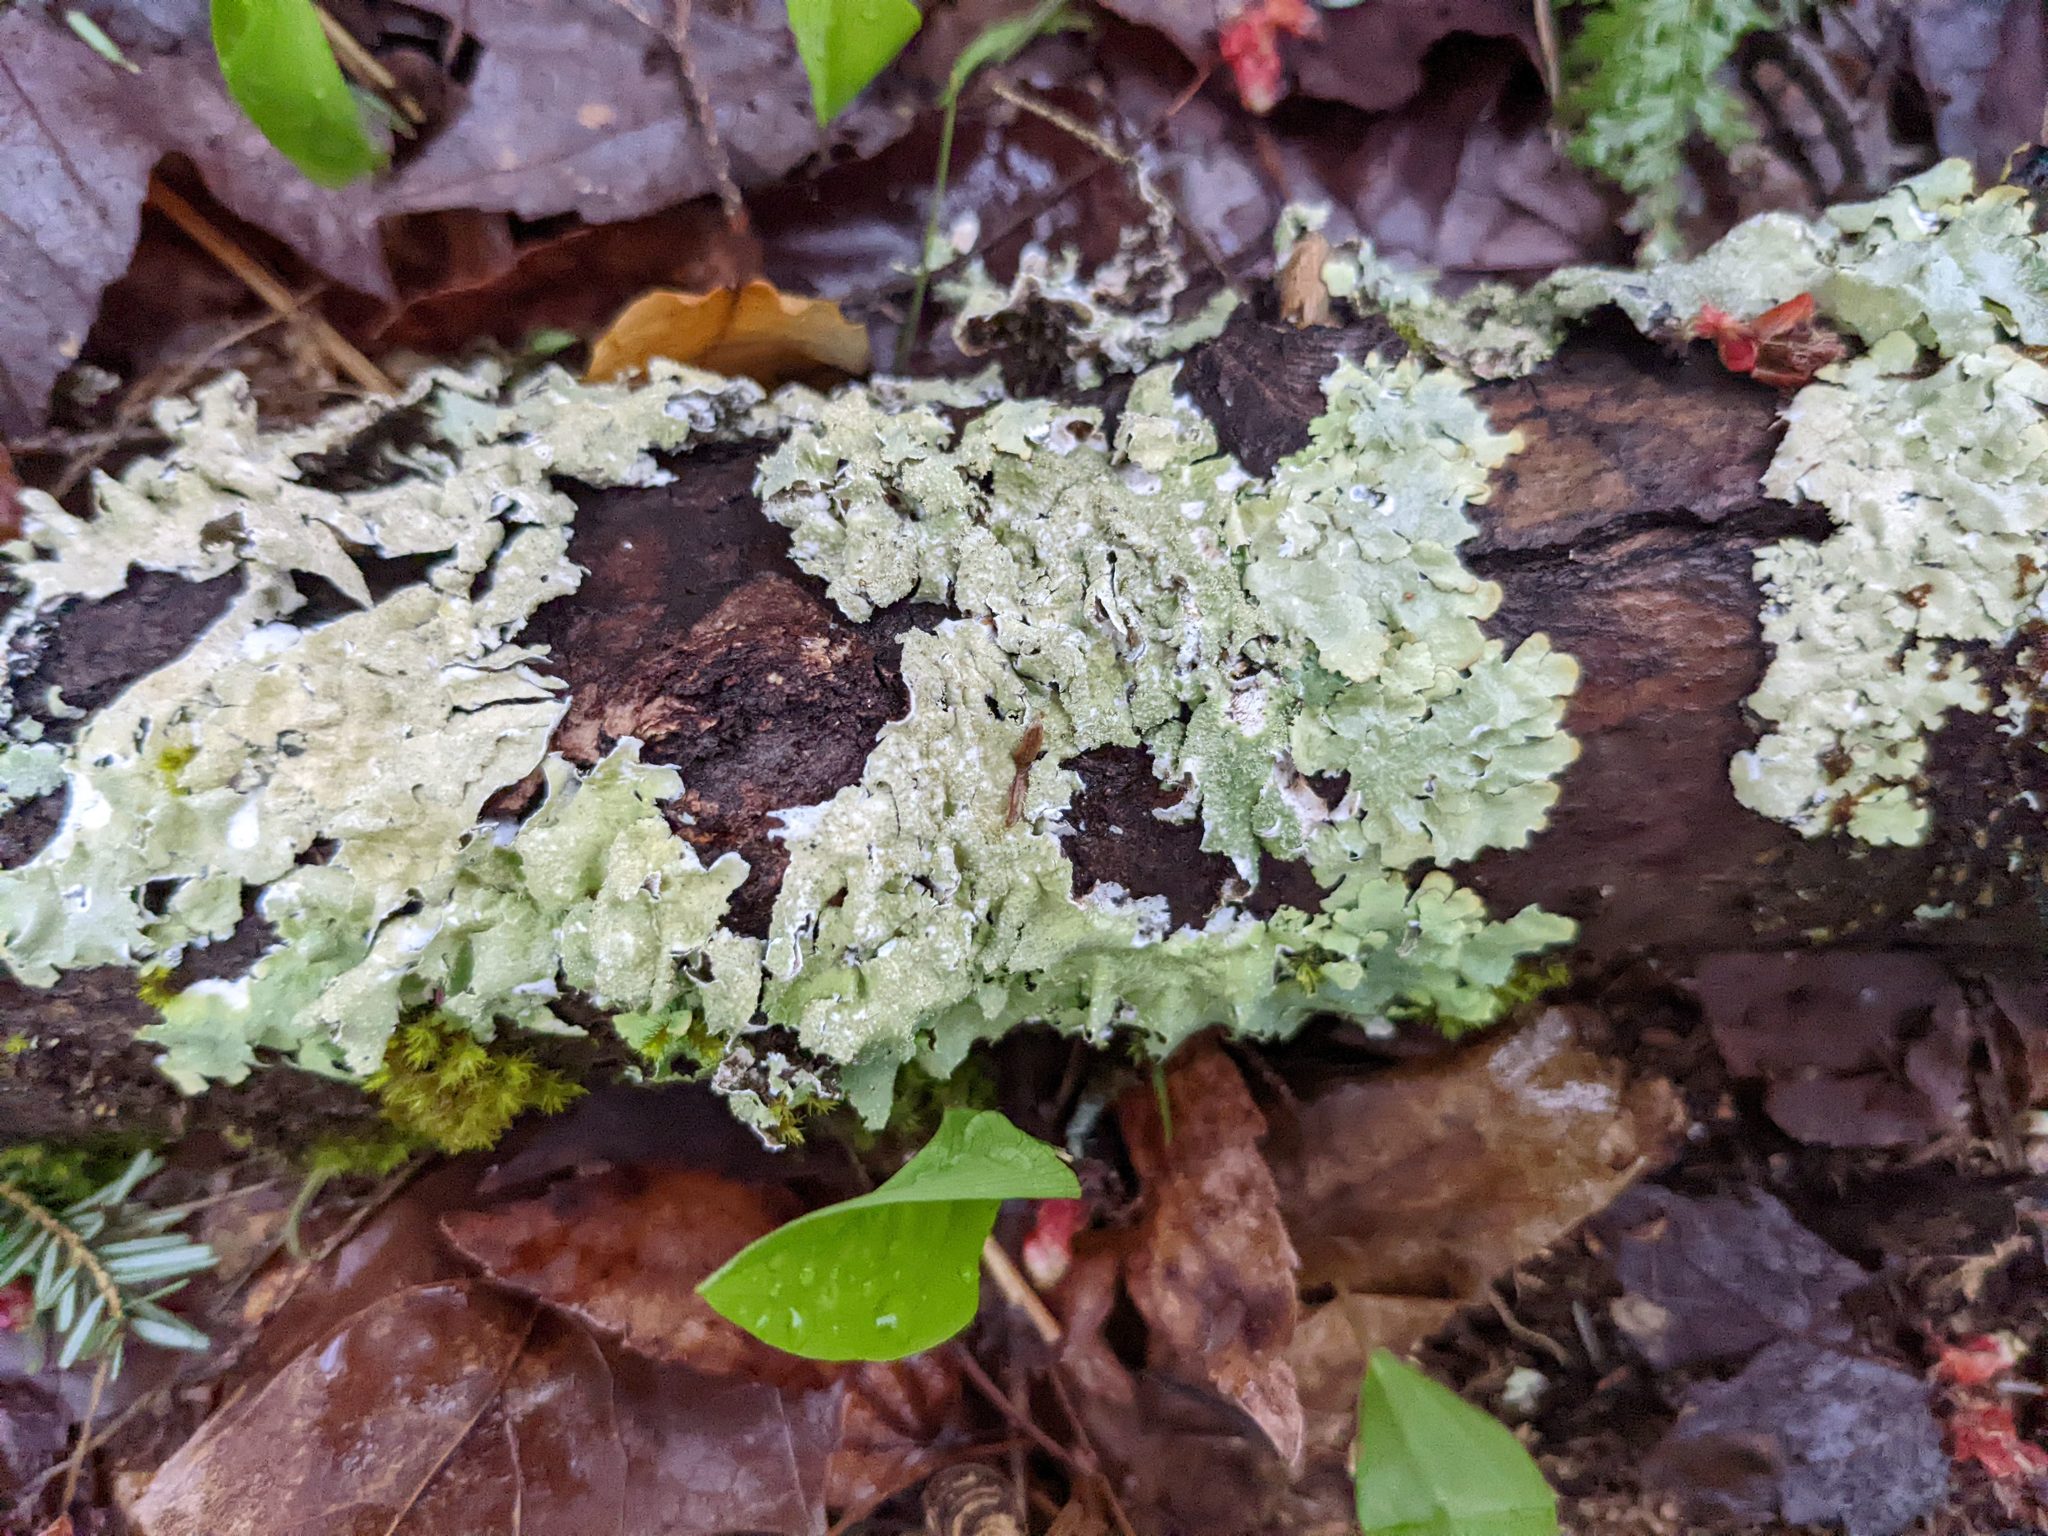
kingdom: Fungi
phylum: Ascomycota
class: Lecanoromycetes
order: Lecanorales
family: Parmeliaceae
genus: Flavoparmelia
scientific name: Flavoparmelia caperata
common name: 40-mile per hour lichen
